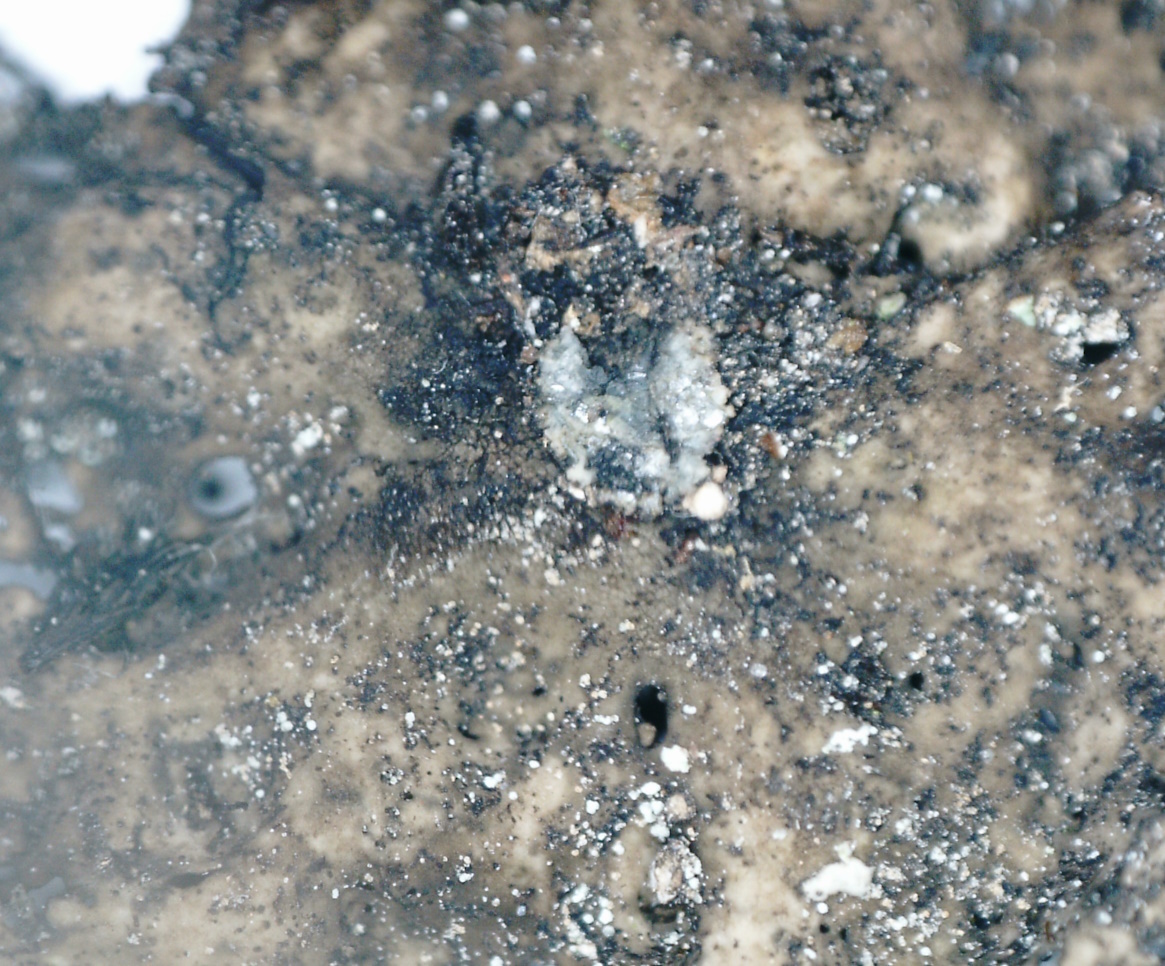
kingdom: Fungi
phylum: Ascomycota
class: Lecanoromycetes
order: Umbilicariales
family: Umbilicariaceae
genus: Umbilicaria
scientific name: Umbilicaria torrefacta
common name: Punctured rock tripe lichen
